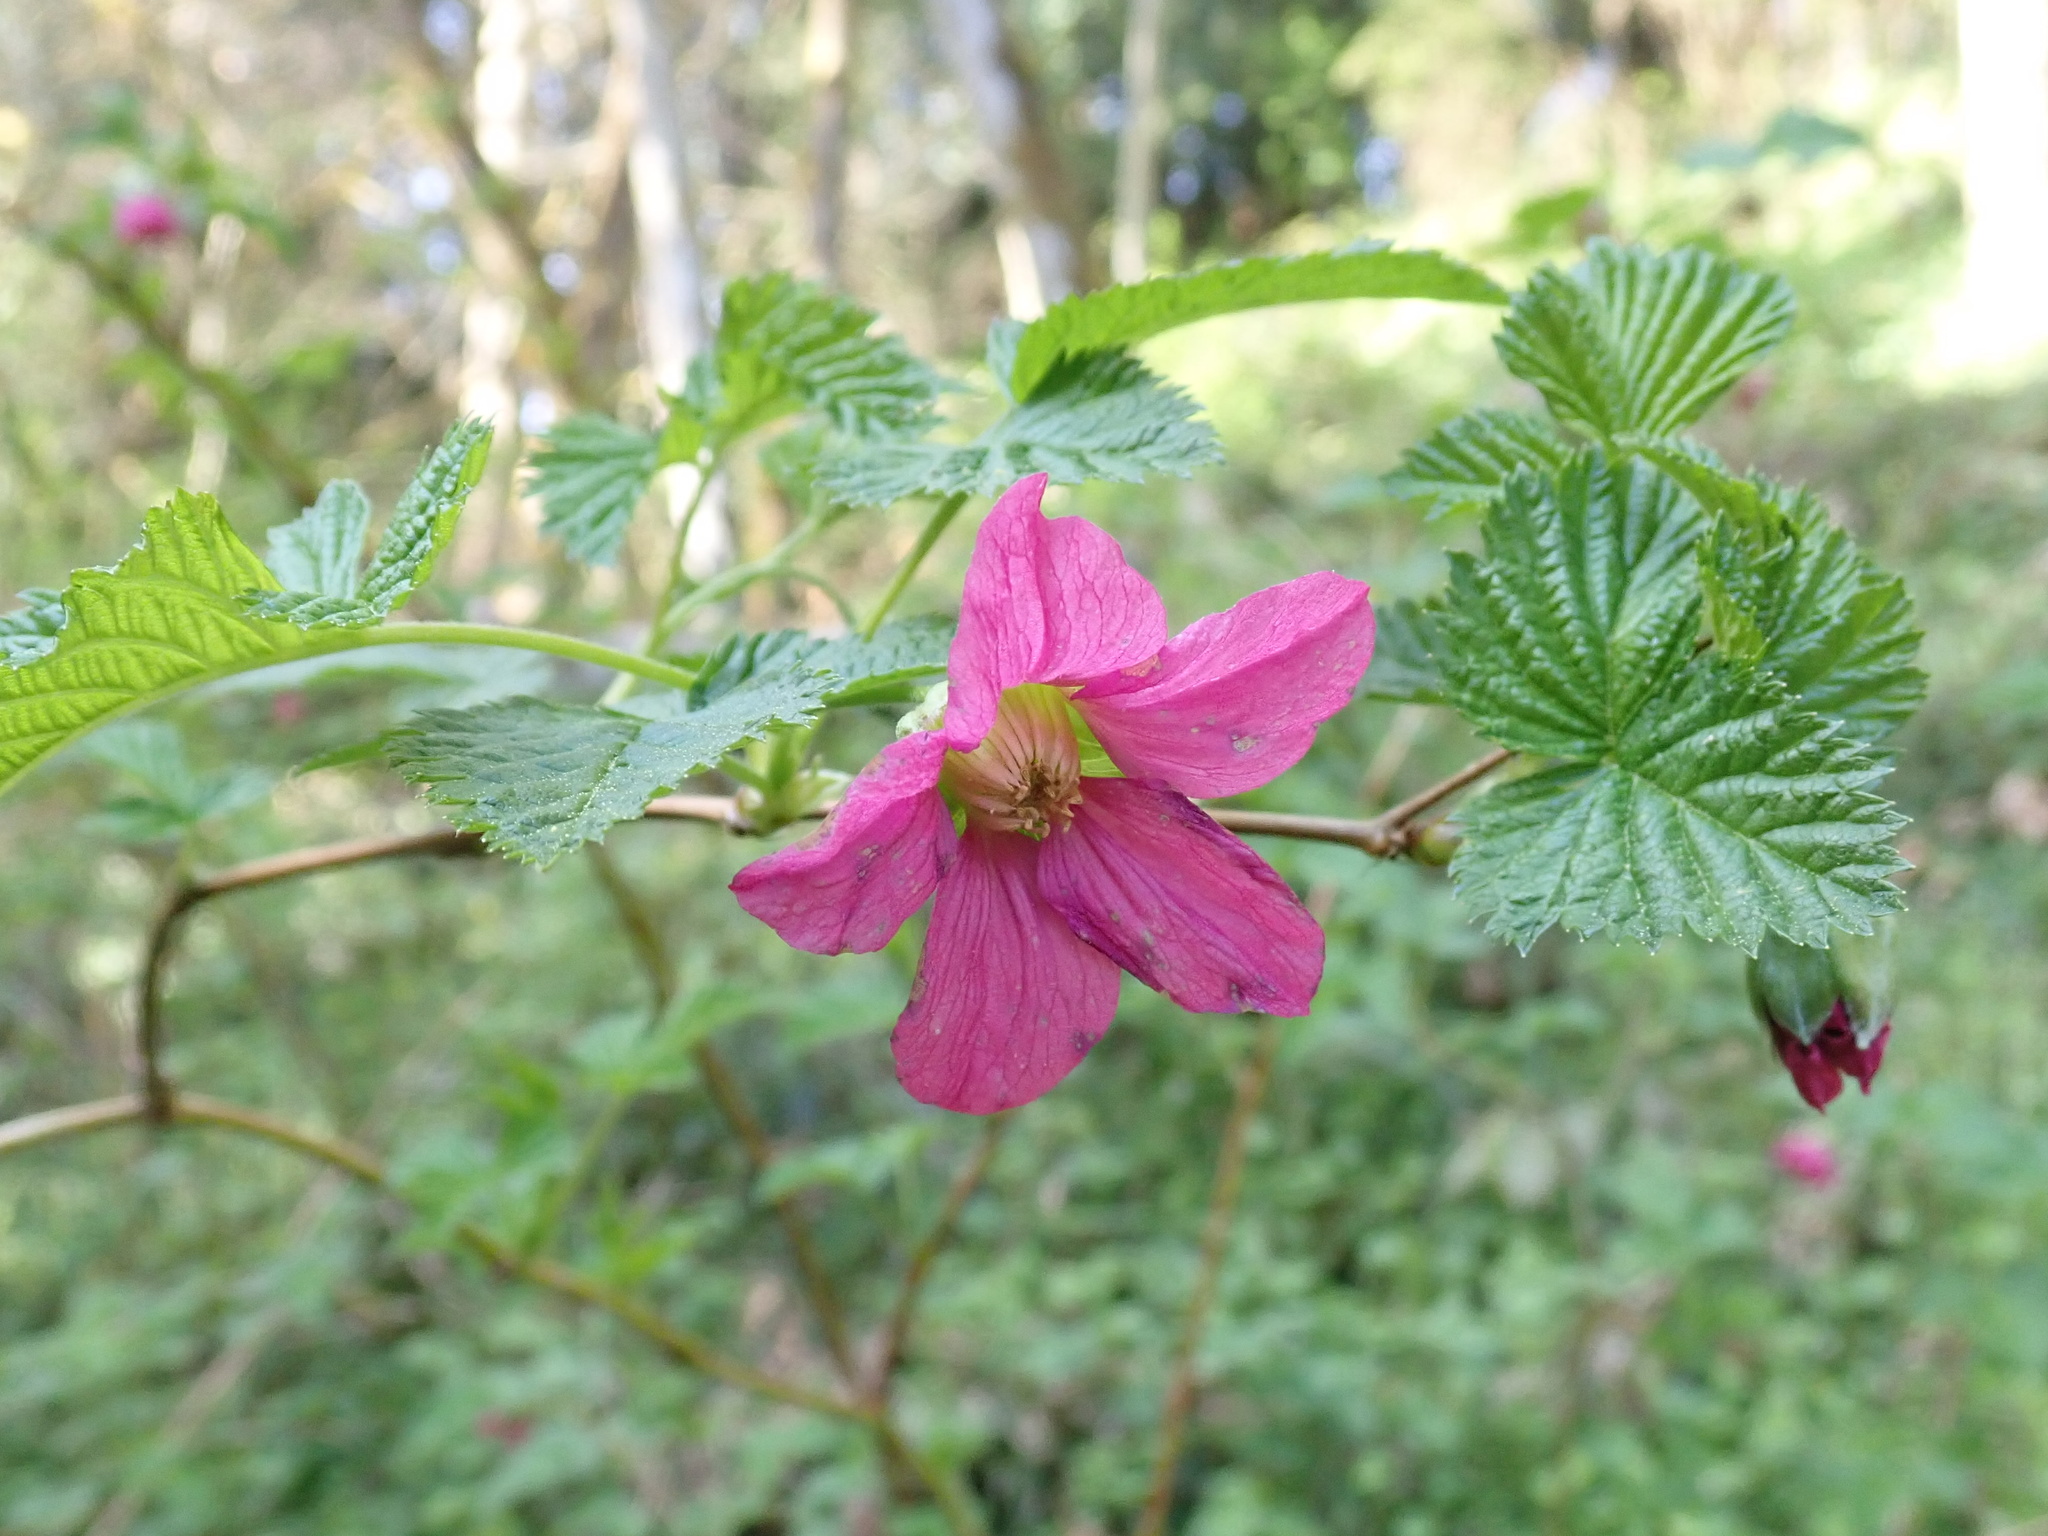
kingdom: Plantae
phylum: Tracheophyta
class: Magnoliopsida
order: Rosales
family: Rosaceae
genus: Rubus
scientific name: Rubus spectabilis
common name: Salmonberry
